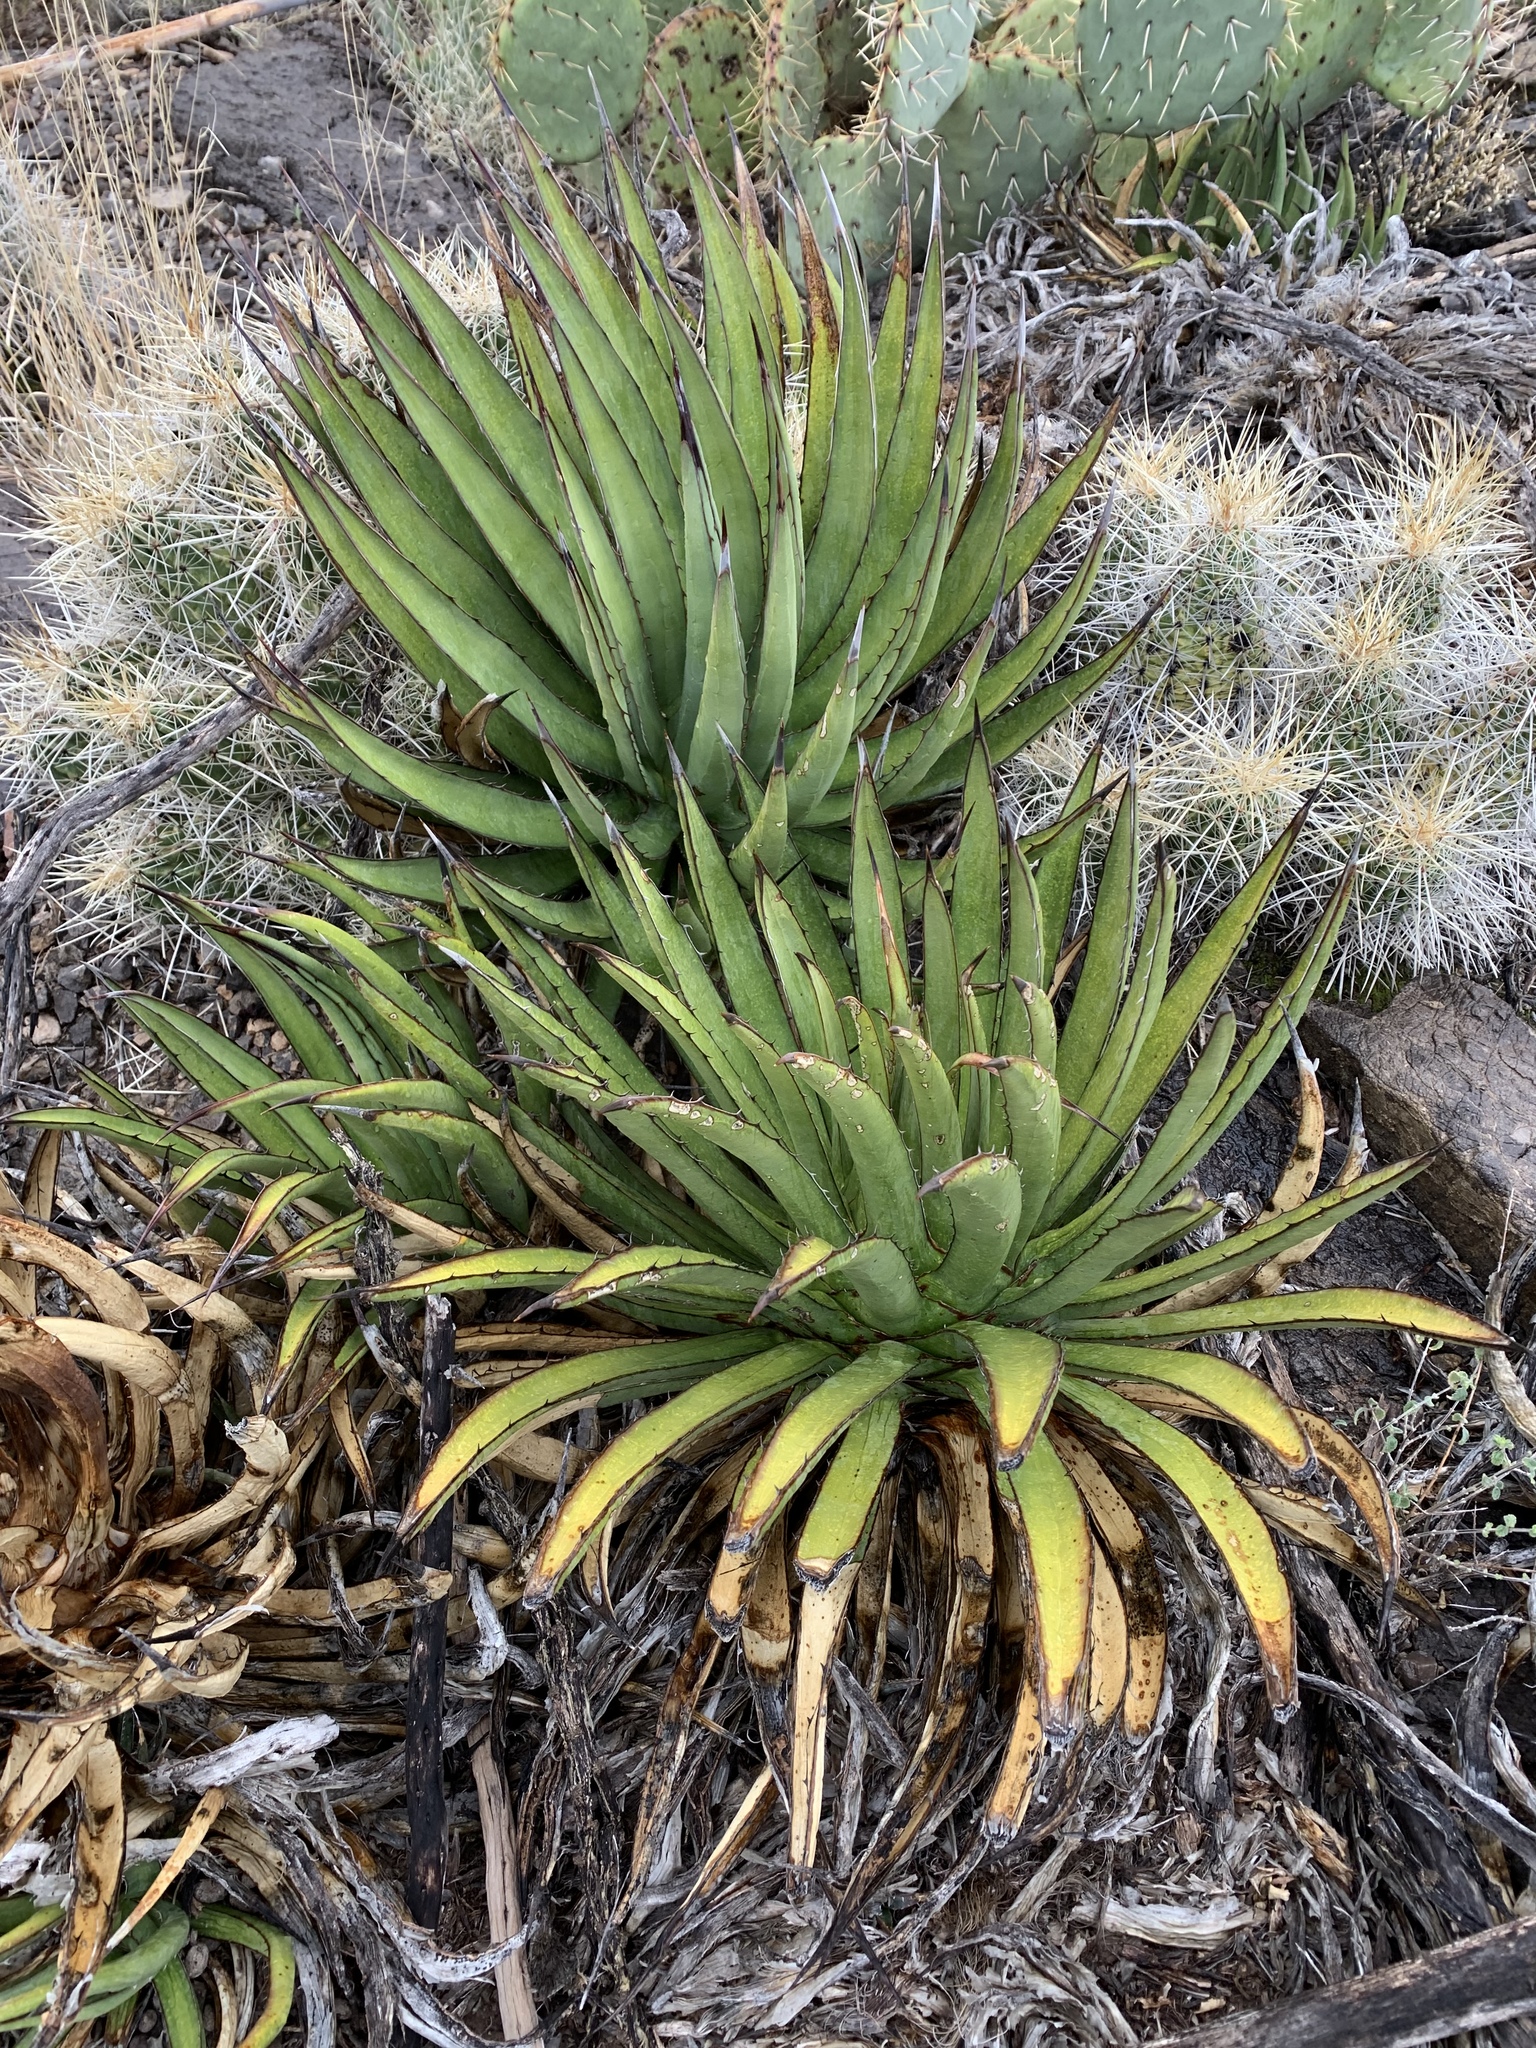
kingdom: Plantae
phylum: Tracheophyta
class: Liliopsida
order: Asparagales
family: Asparagaceae
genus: Agave
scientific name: Agave lechuguilla
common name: Lecheguilla agave
